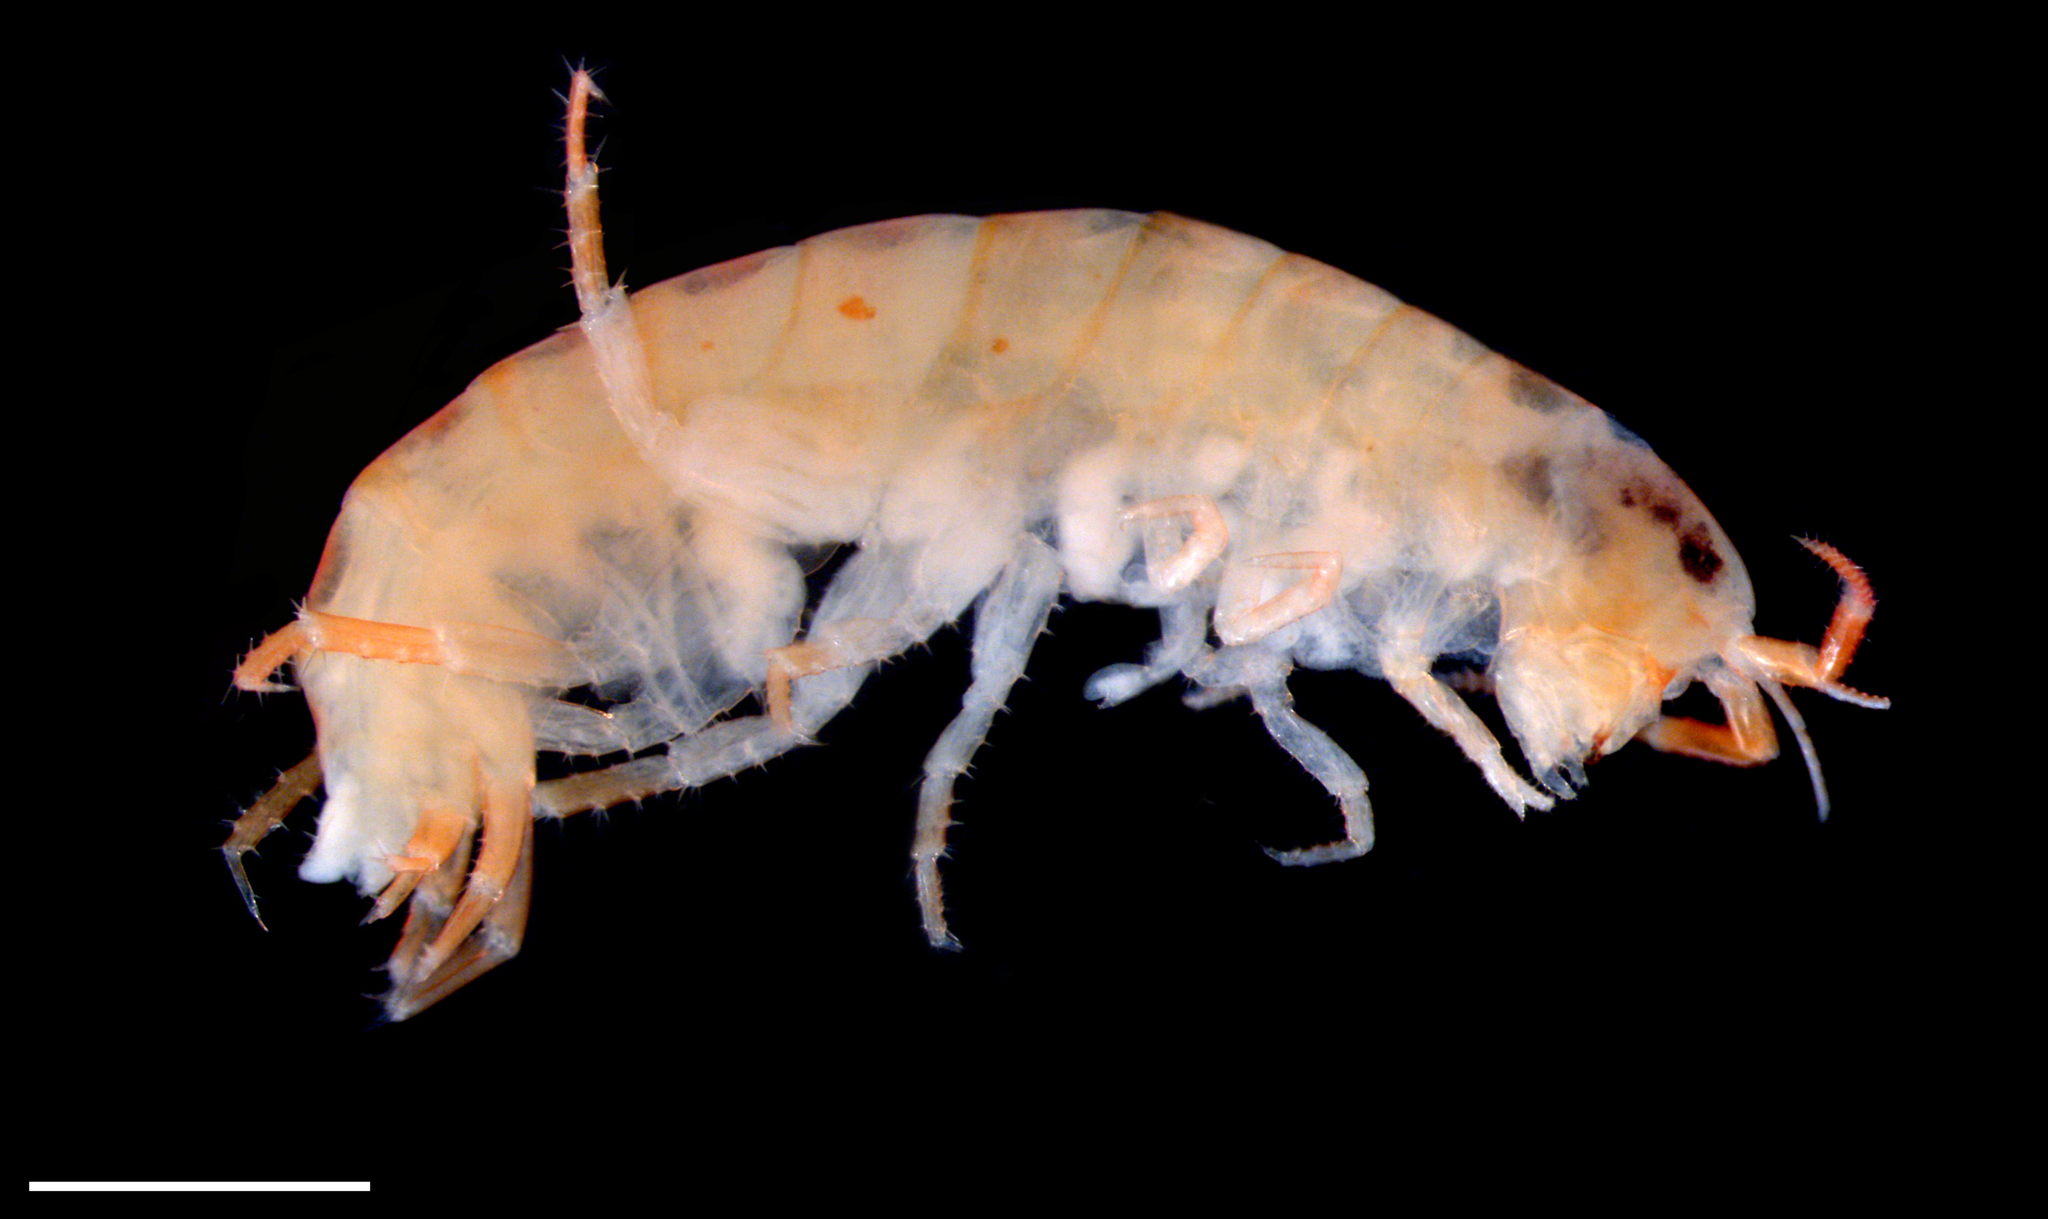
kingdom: Animalia
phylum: Arthropoda
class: Malacostraca
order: Amphipoda
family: Brevitalitridae
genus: Talitroides
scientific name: Talitroides alluaudi
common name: Terrestrial beach hopper
